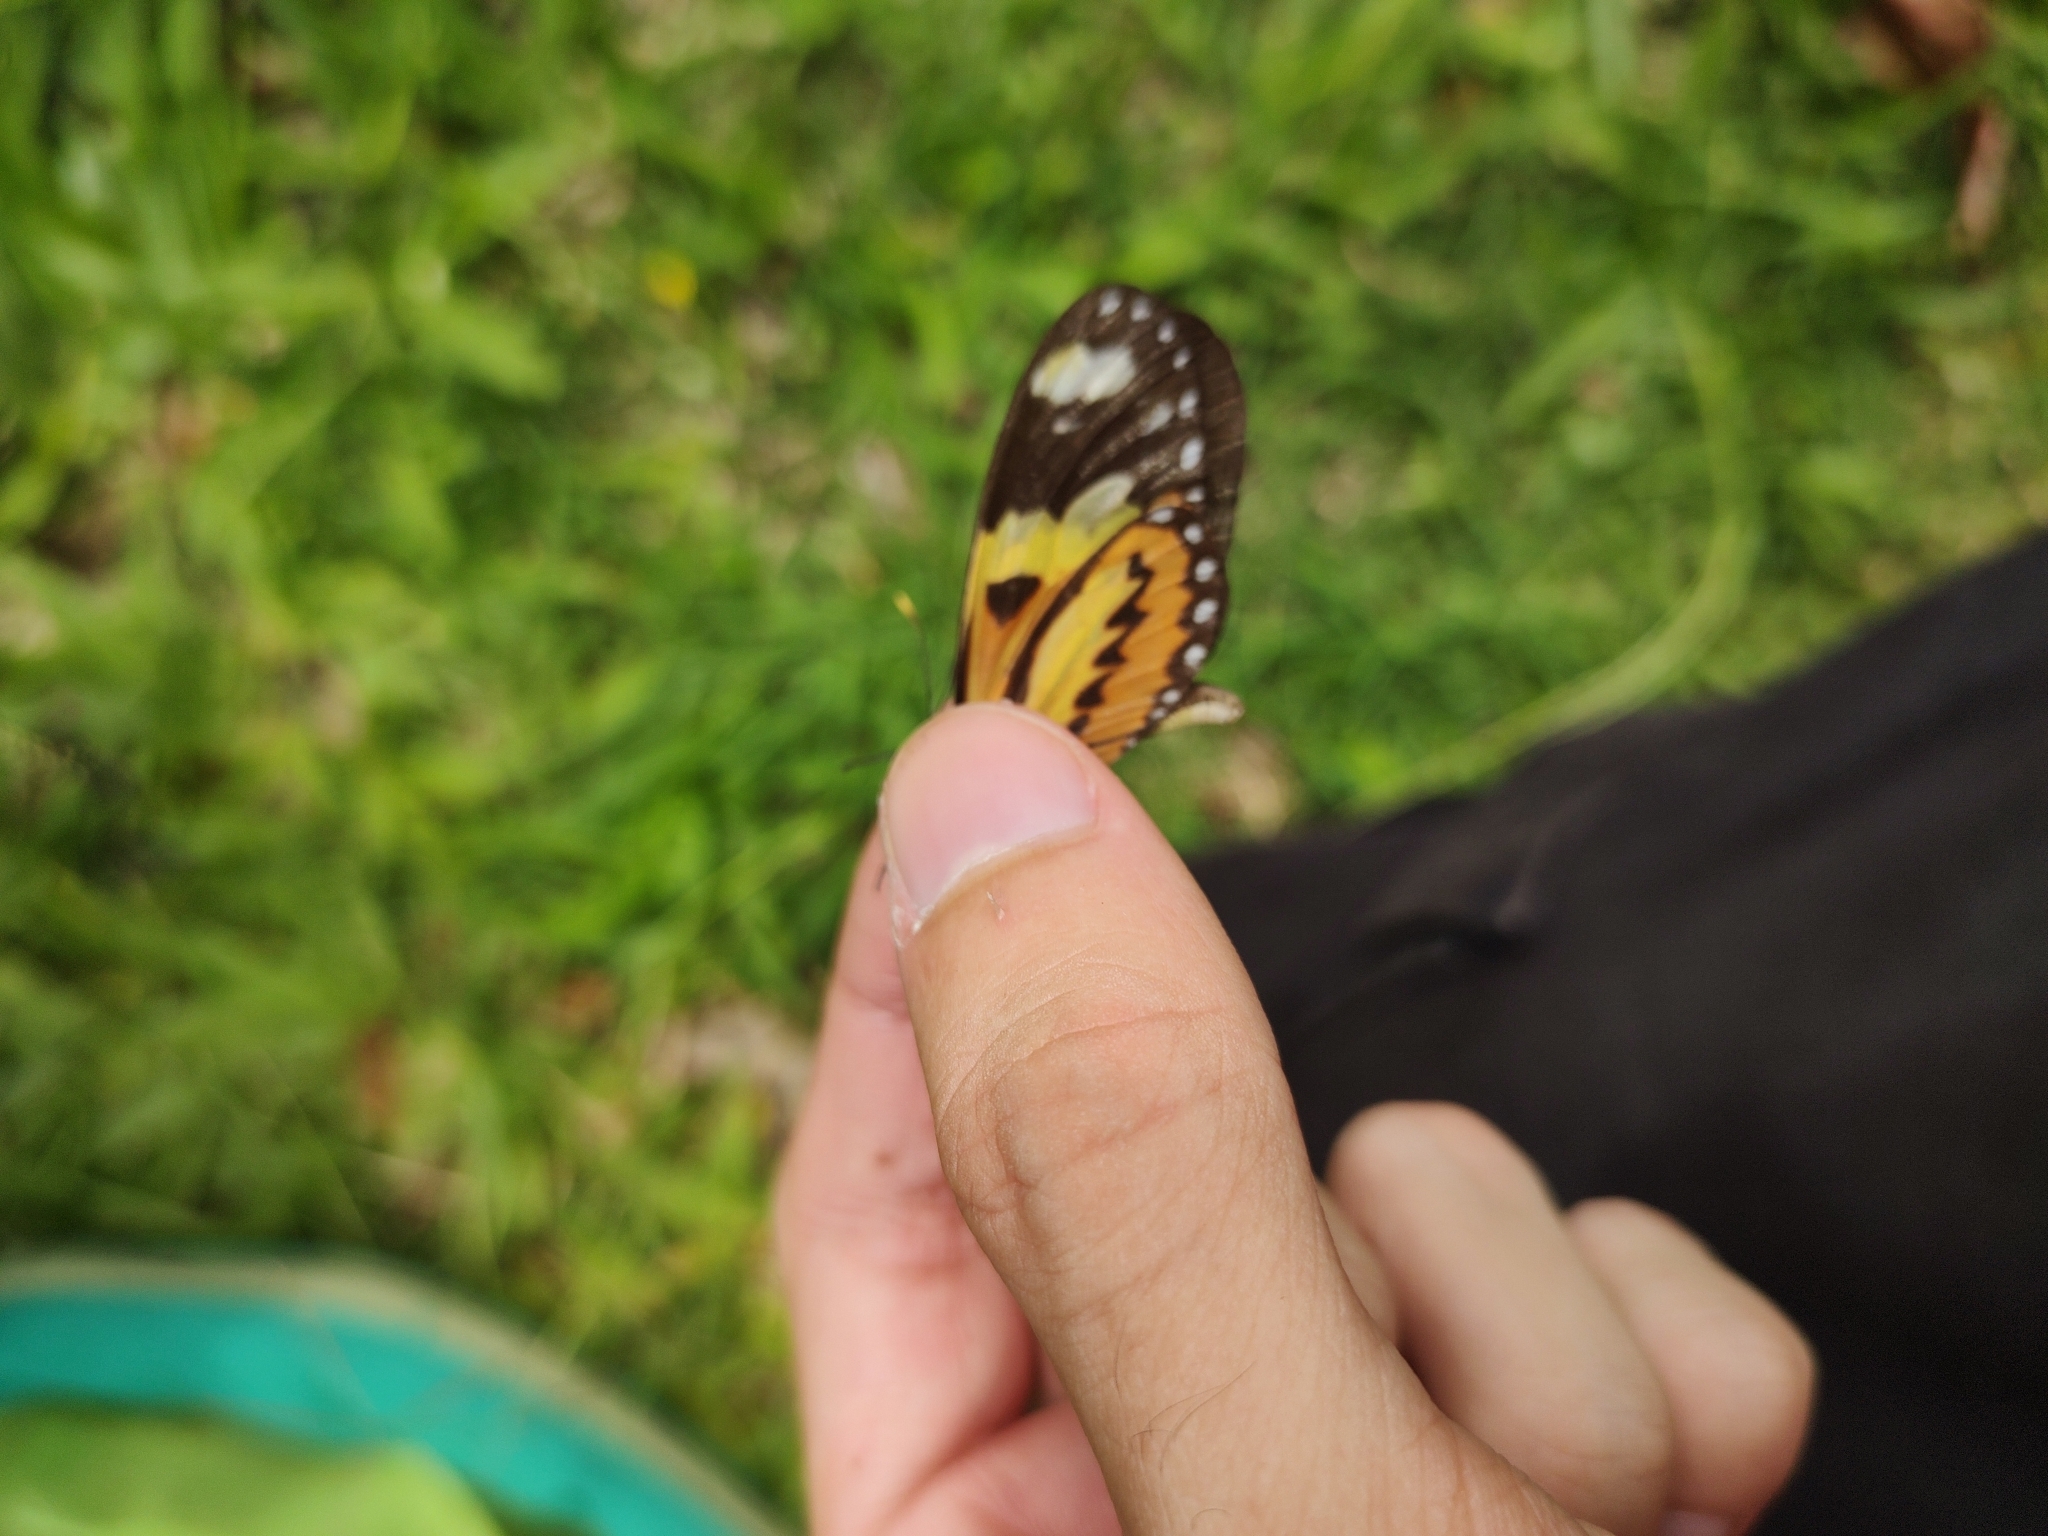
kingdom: Animalia
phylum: Arthropoda
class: Insecta
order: Lepidoptera
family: Nymphalidae
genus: Mechanitis
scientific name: Mechanitis lysimnia
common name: Lysimnia tigerwing
